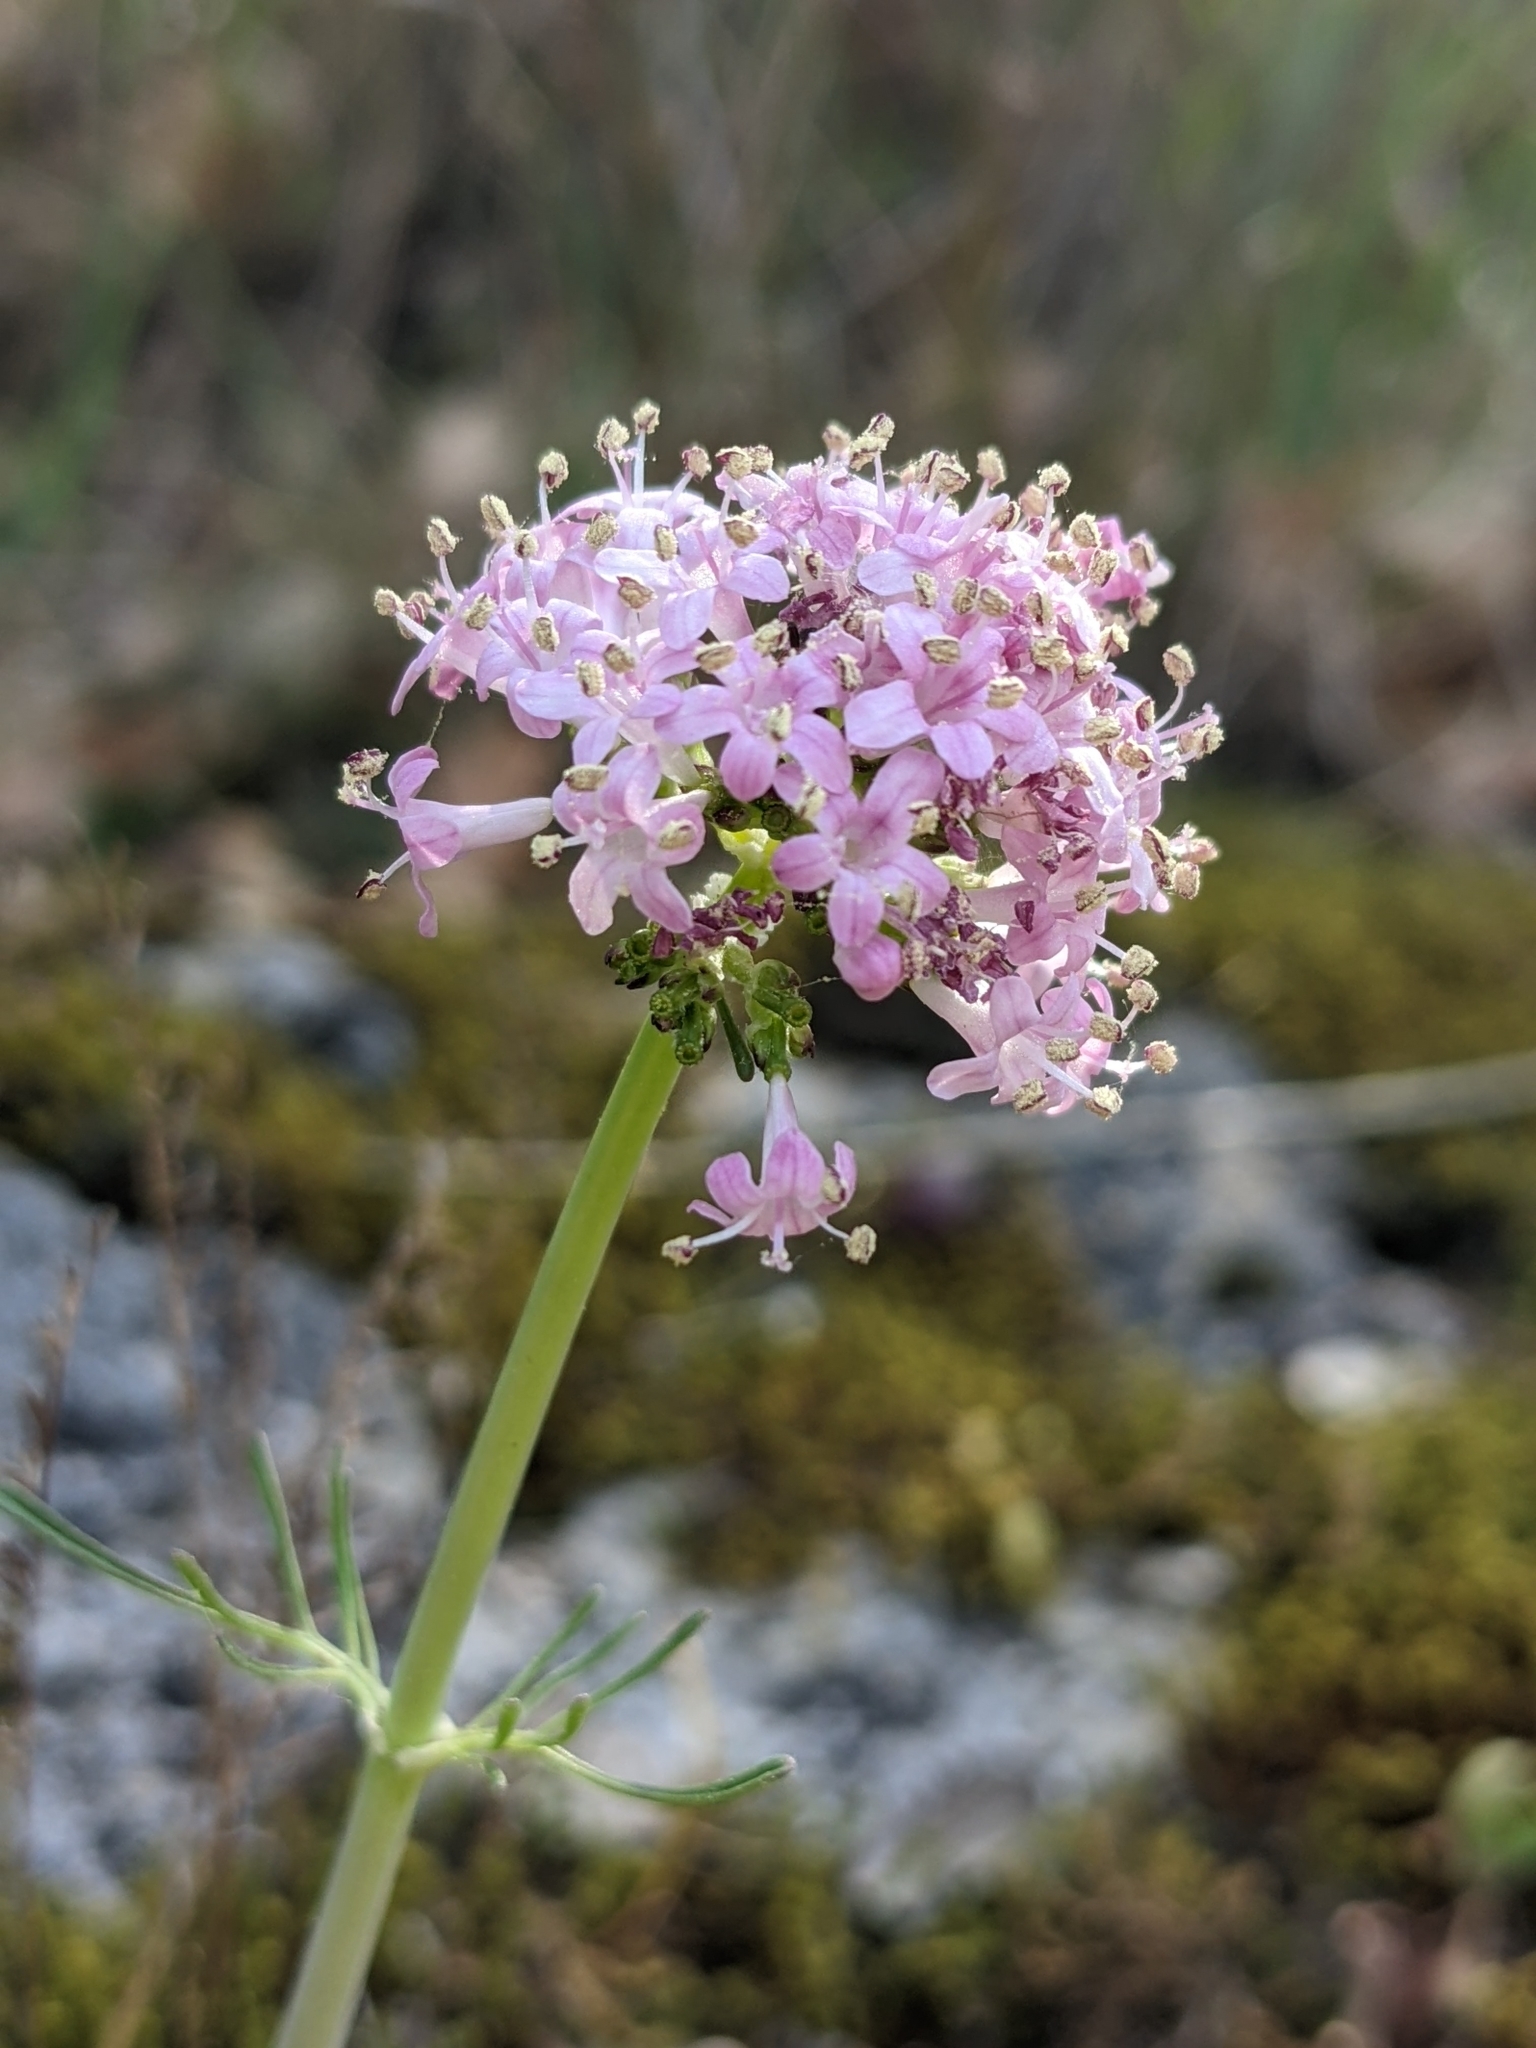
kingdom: Plantae
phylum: Tracheophyta
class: Magnoliopsida
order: Dipsacales
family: Caprifoliaceae
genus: Valeriana
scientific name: Valeriana tuberosa
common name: Tuberous valerian
